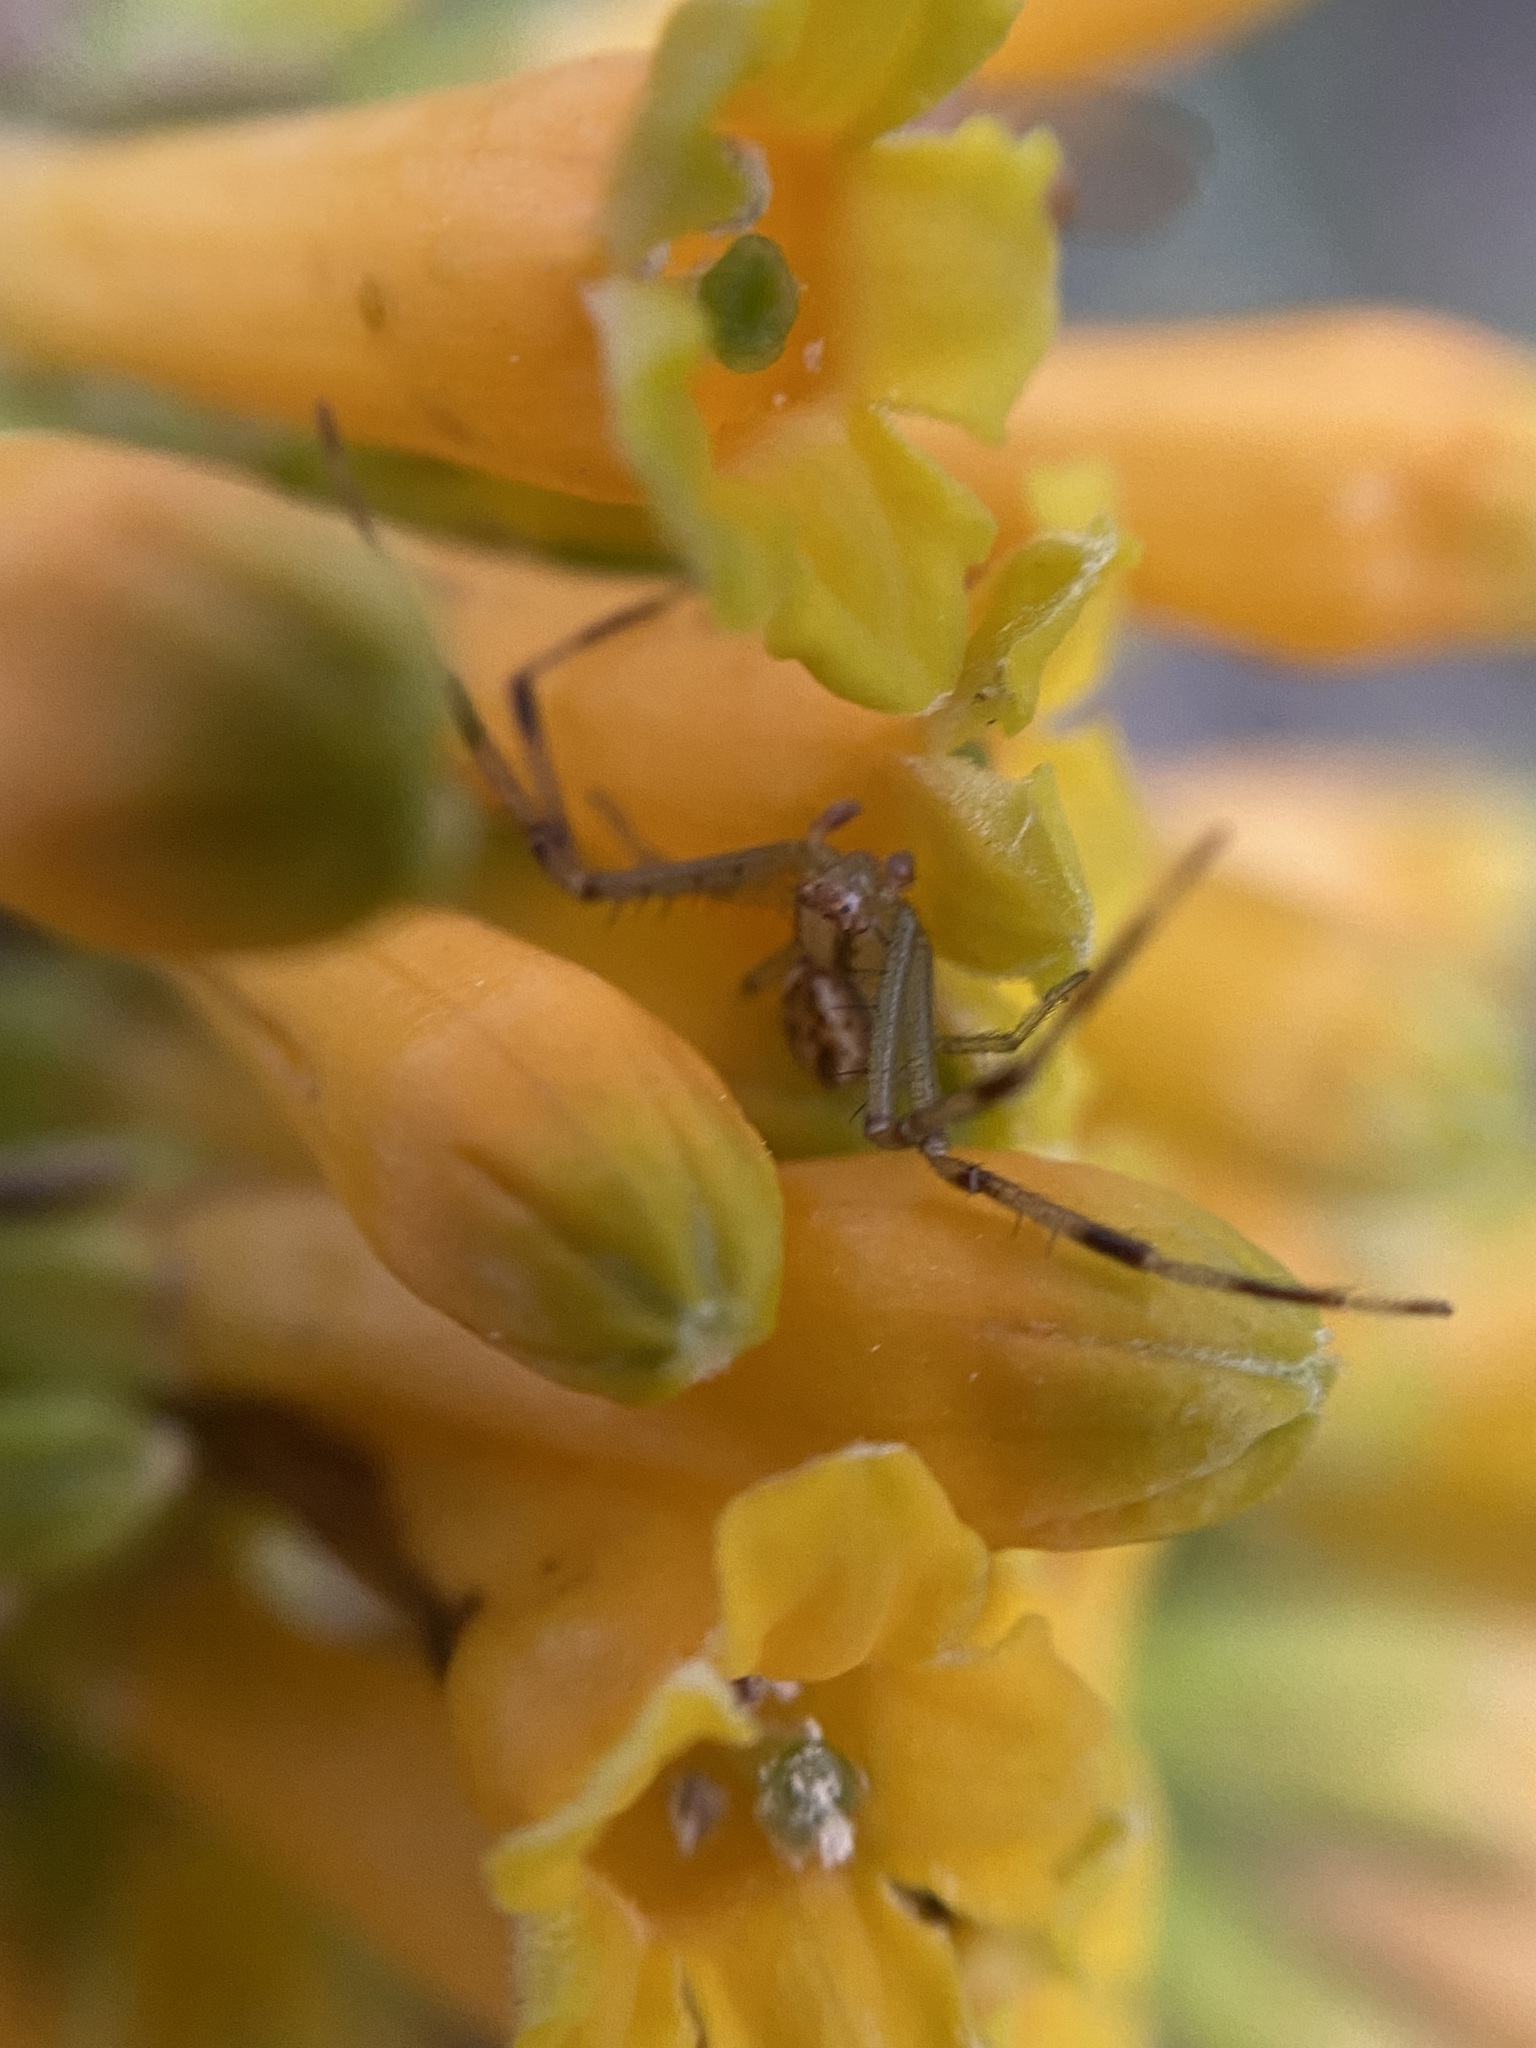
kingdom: Animalia
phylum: Arthropoda
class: Arachnida
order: Araneae
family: Thomisidae
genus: Misumenops
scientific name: Misumenops
